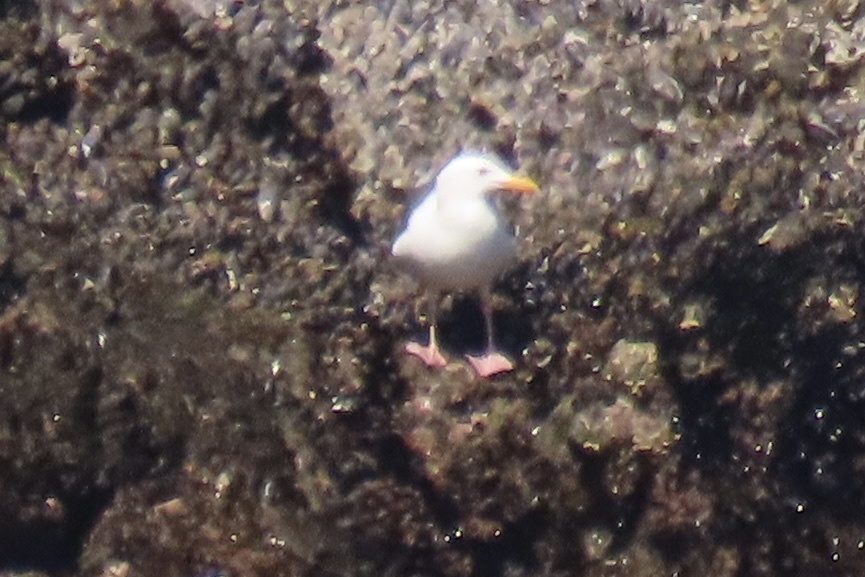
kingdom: Animalia
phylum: Chordata
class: Aves
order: Charadriiformes
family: Laridae
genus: Larus
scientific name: Larus occidentalis
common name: Western gull
